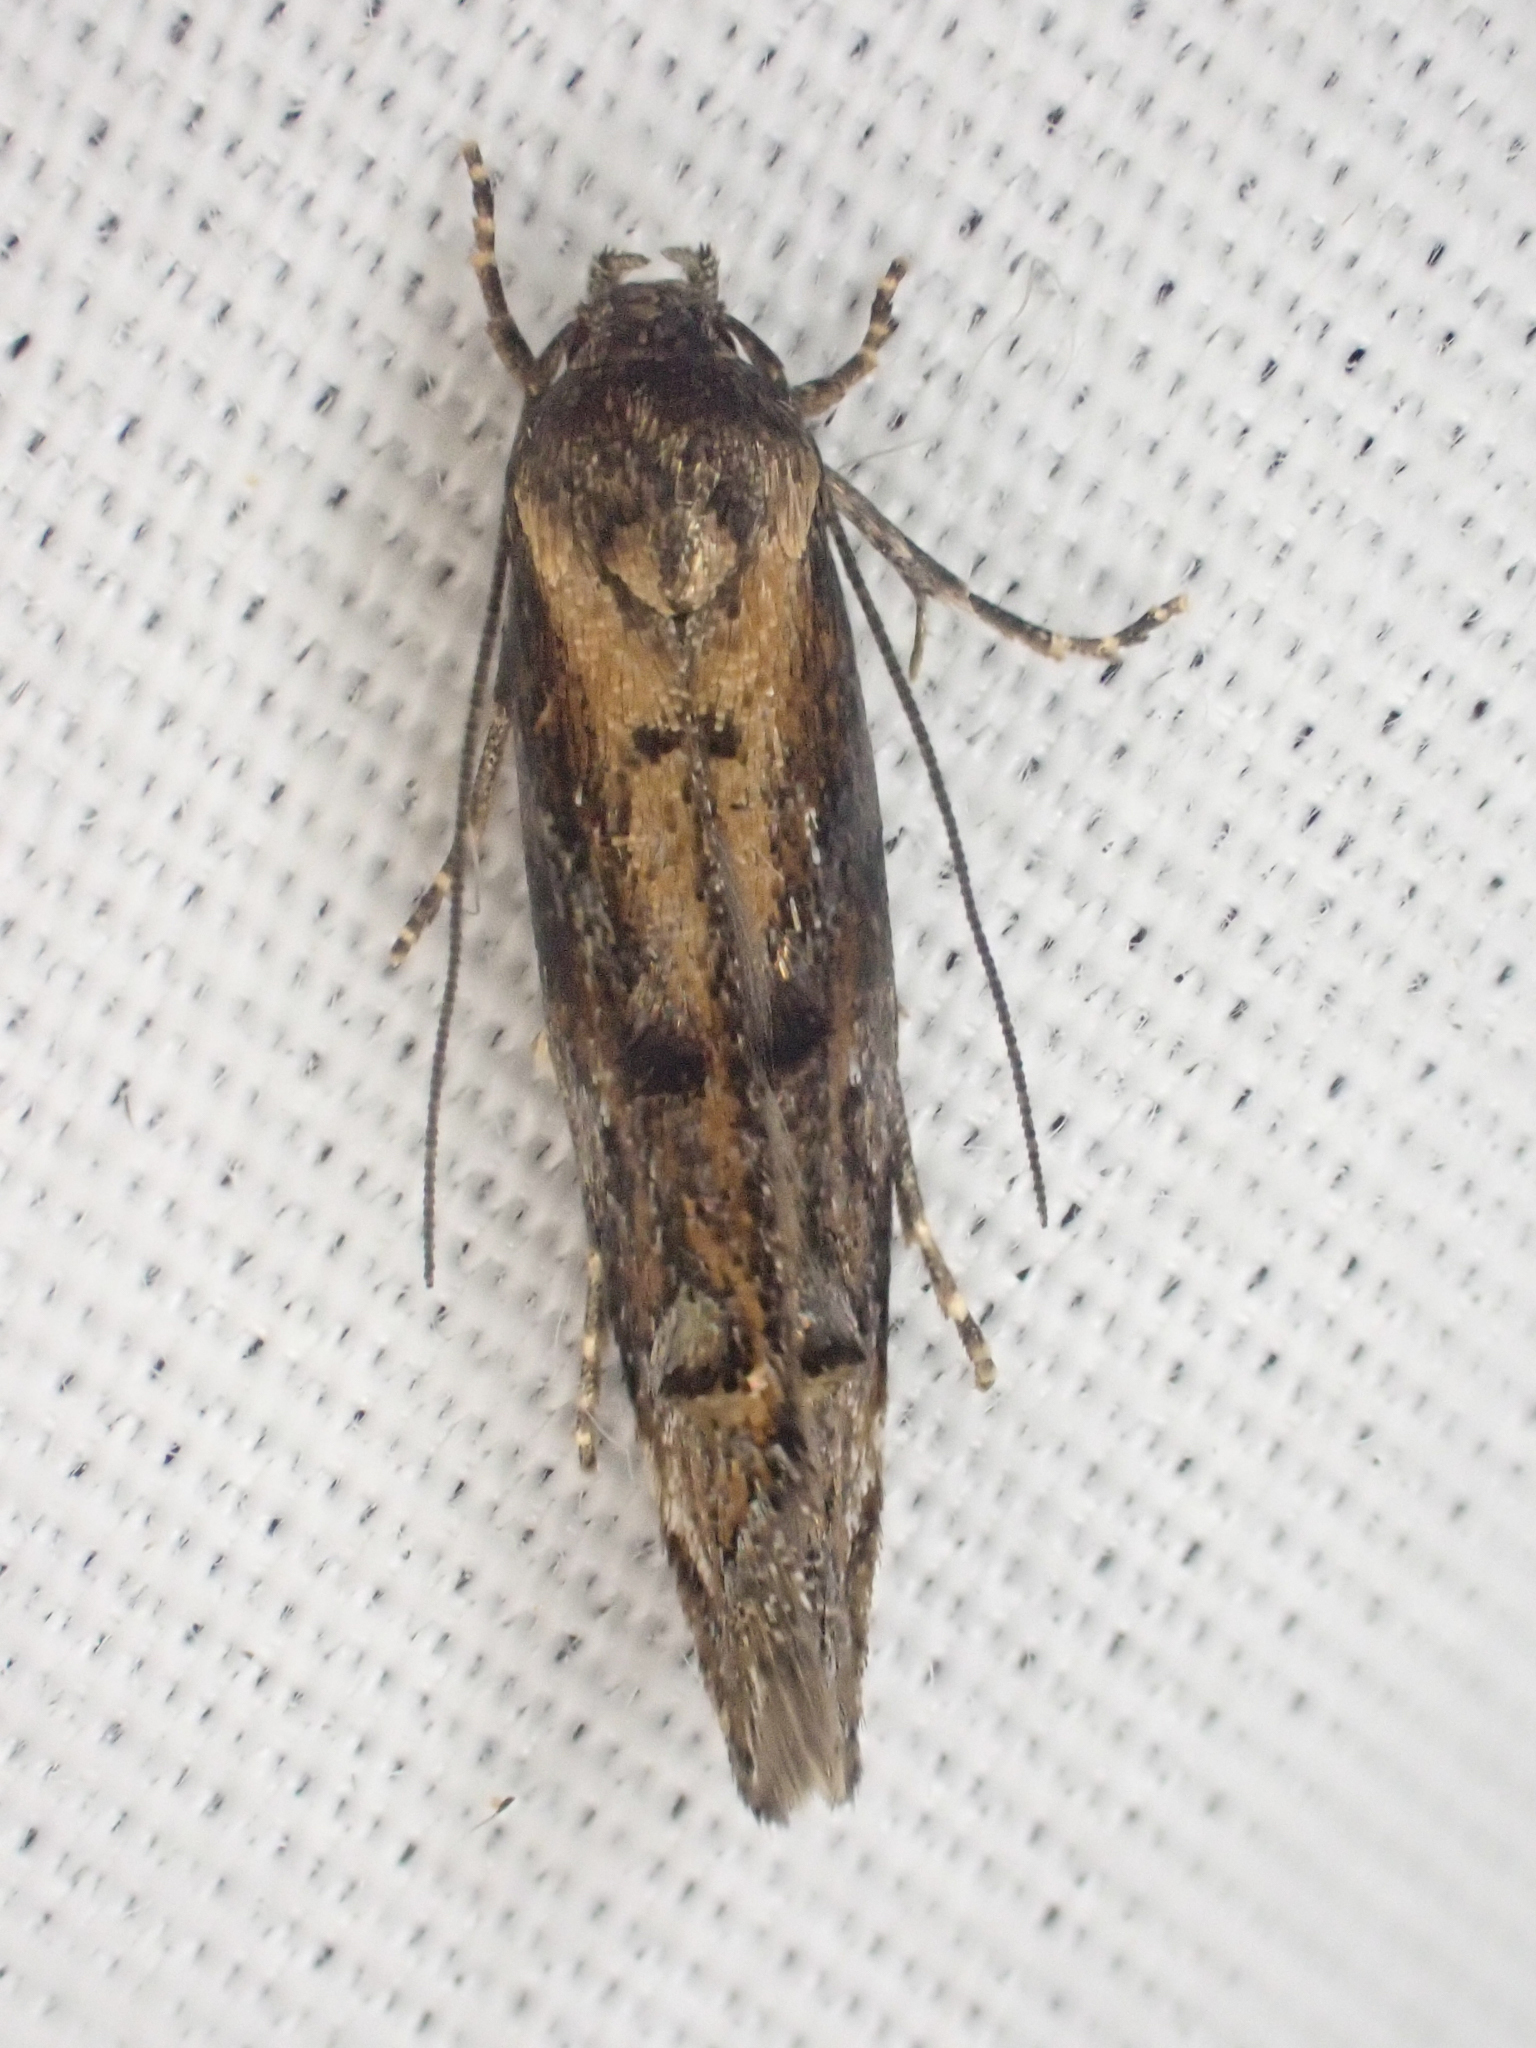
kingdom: Animalia
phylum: Arthropoda
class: Insecta
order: Lepidoptera
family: Momphidae
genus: Mompha
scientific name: Mompha idaei
